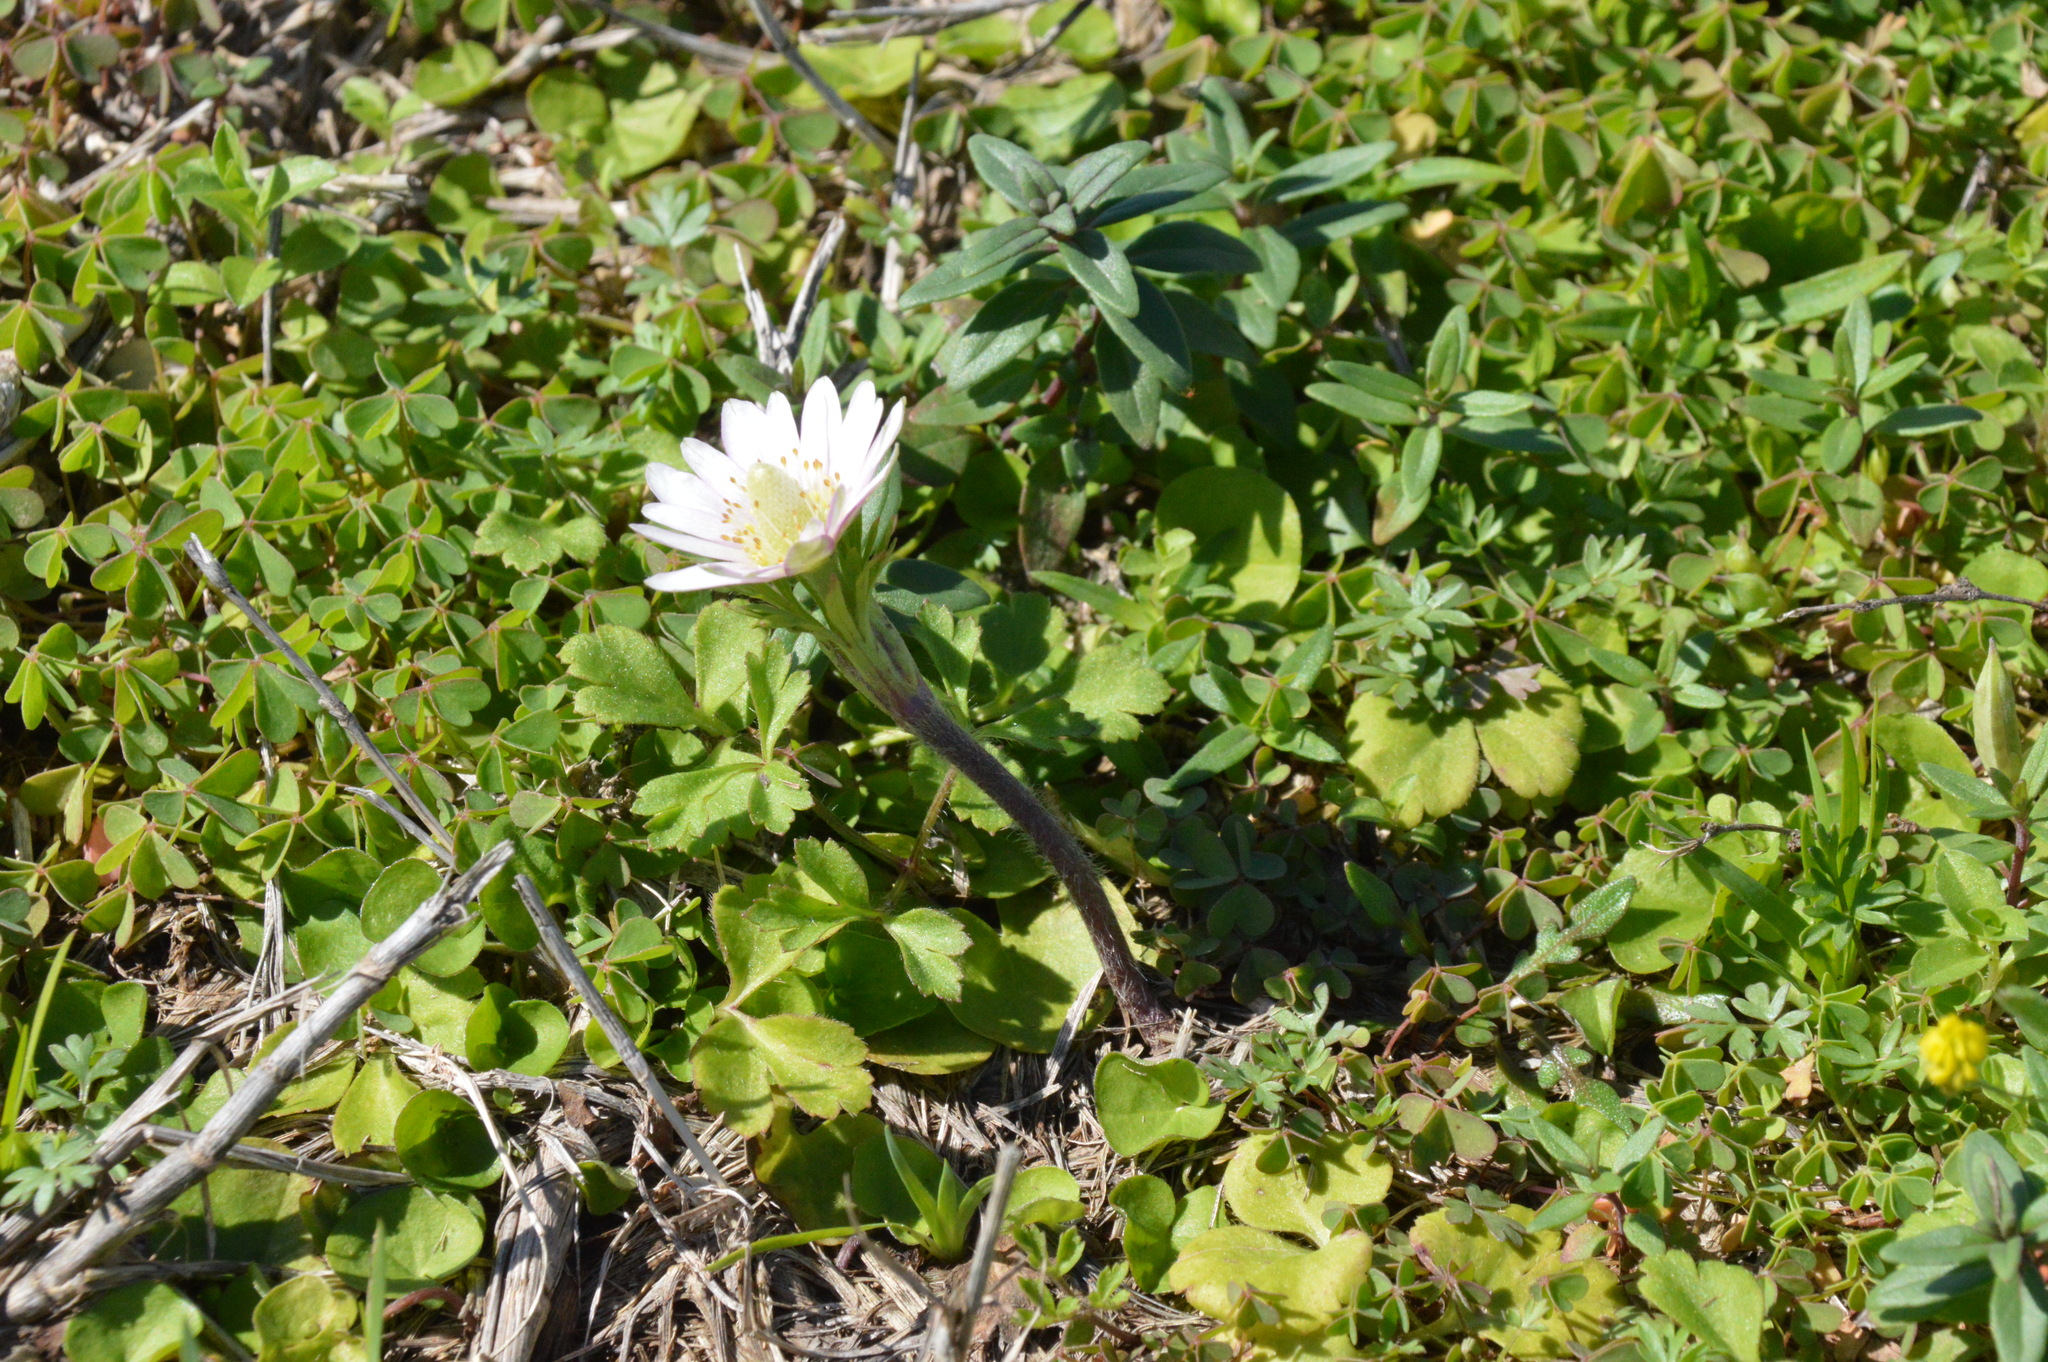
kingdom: Plantae
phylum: Tracheophyta
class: Magnoliopsida
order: Ranunculales
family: Ranunculaceae
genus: Anemone
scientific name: Anemone berlandieri
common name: Ten-petal anemone
